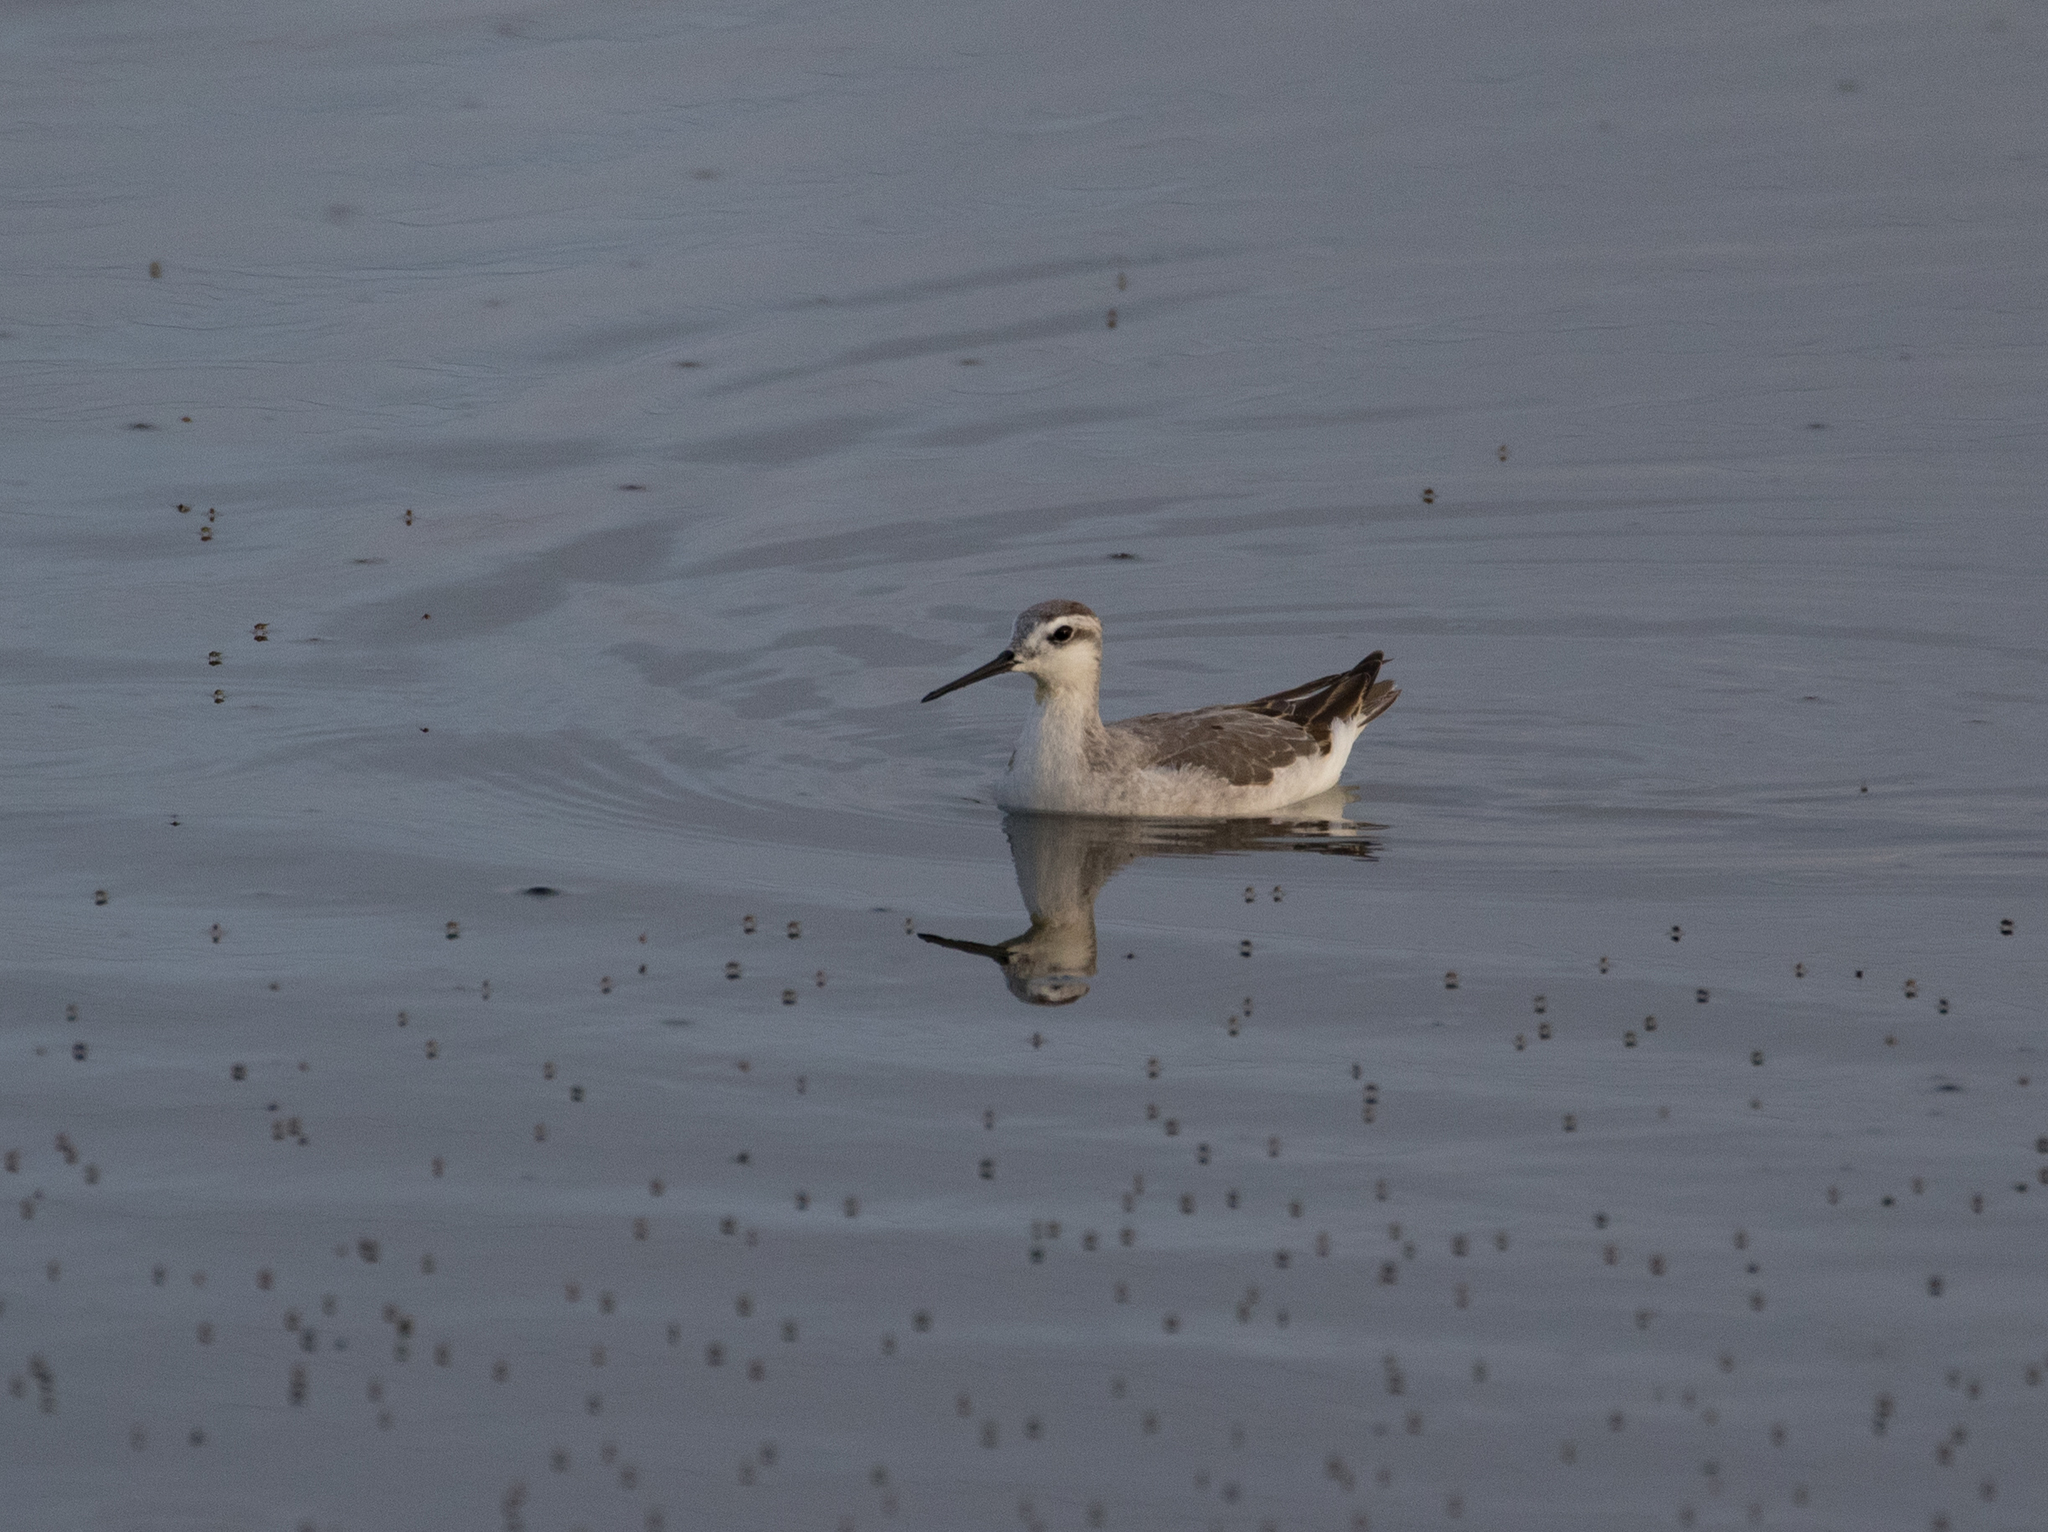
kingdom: Animalia
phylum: Chordata
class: Aves
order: Charadriiformes
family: Scolopacidae
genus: Phalaropus
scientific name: Phalaropus tricolor
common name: Wilson's phalarope
